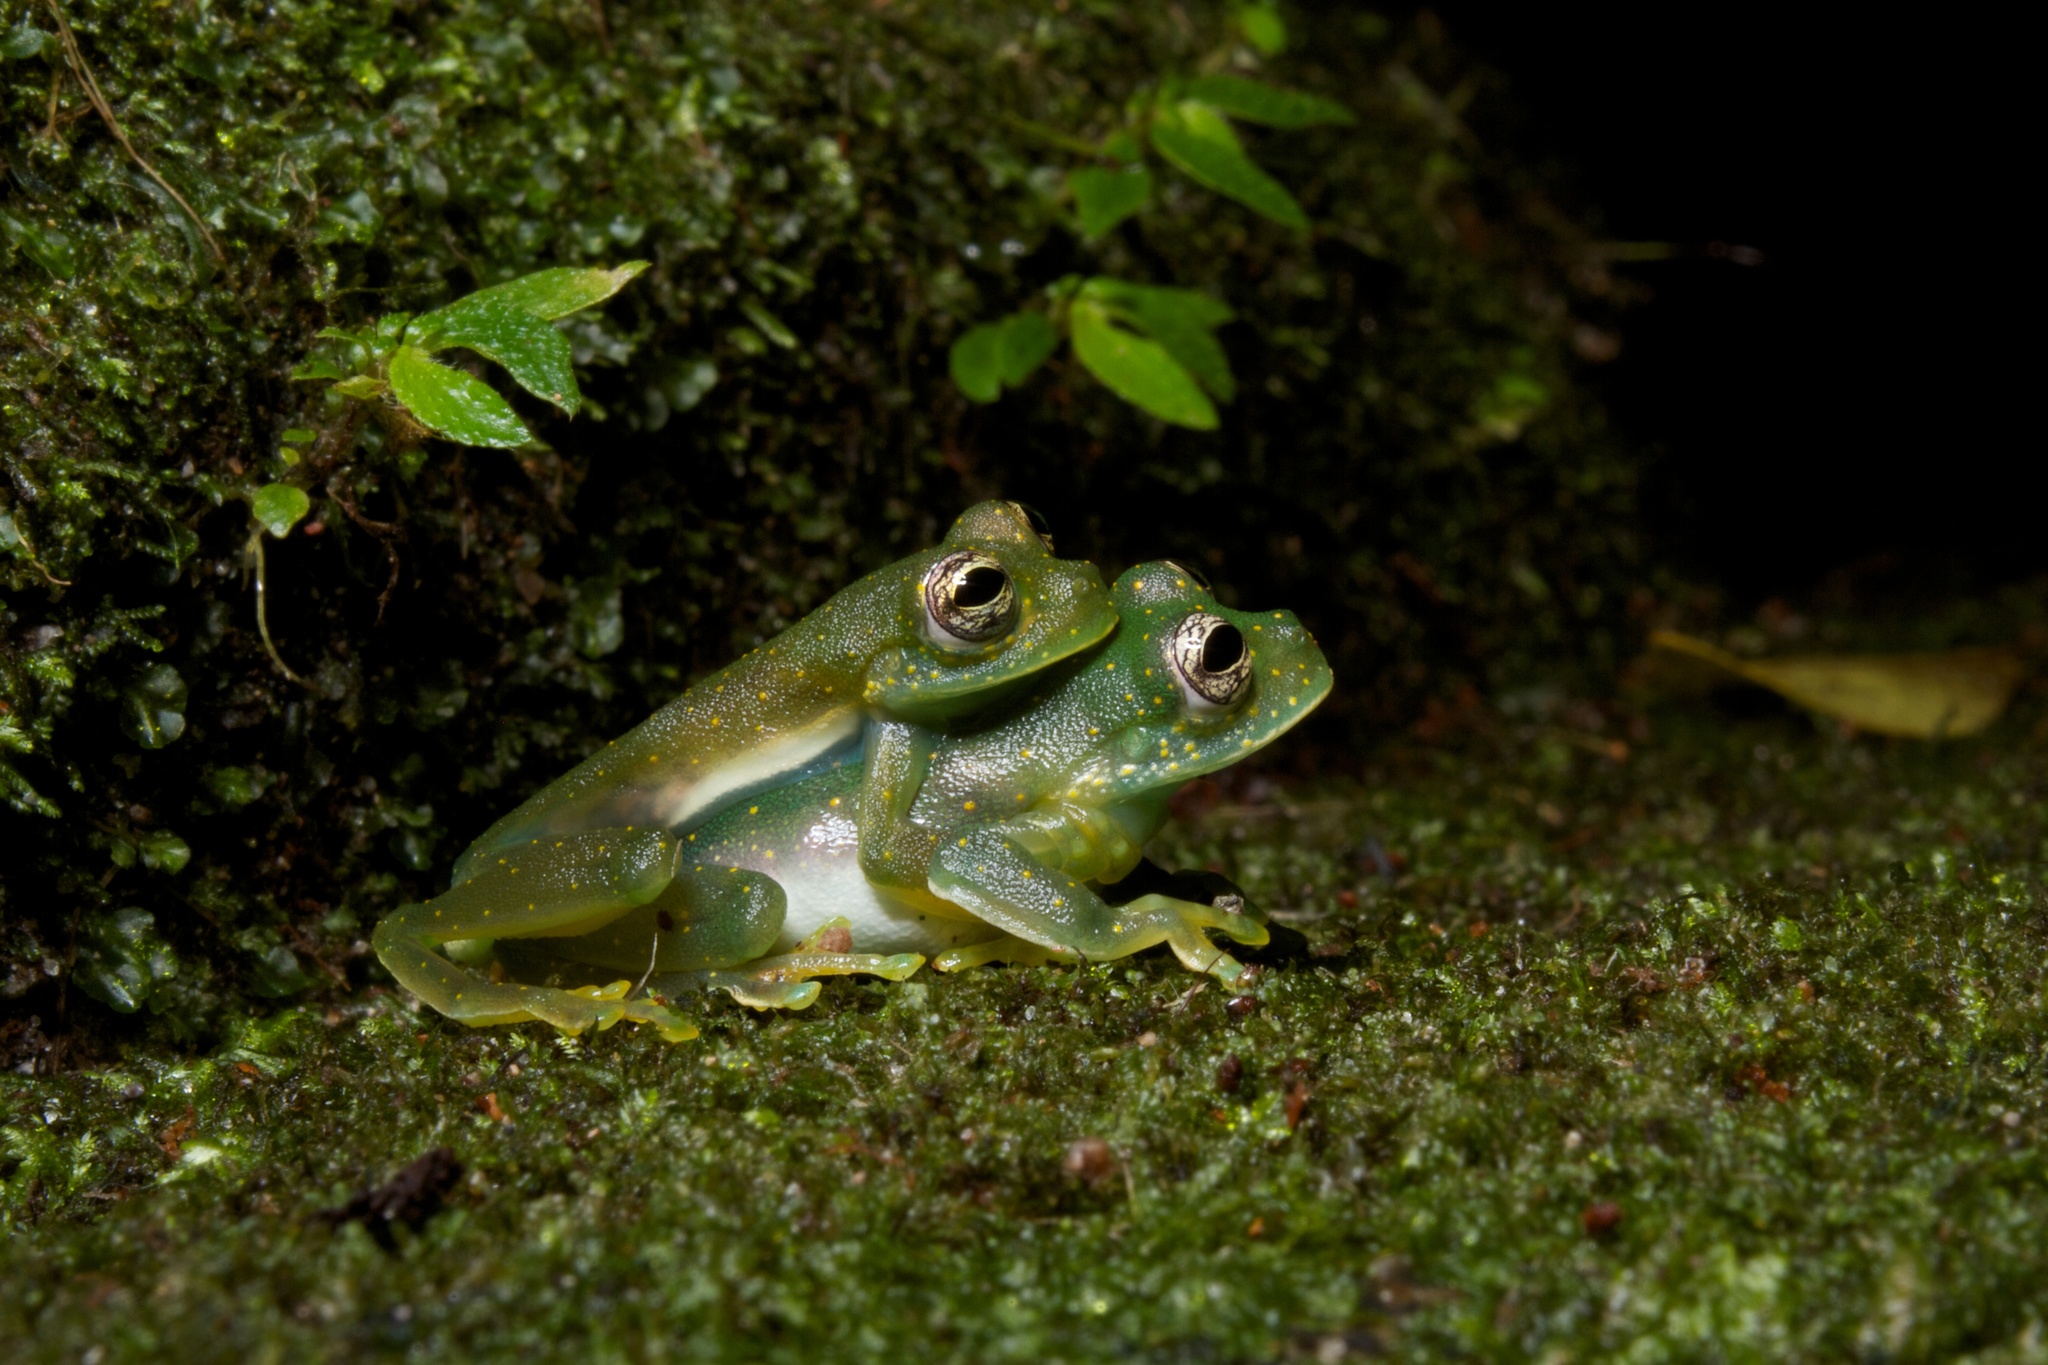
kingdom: Animalia
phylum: Chordata
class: Amphibia
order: Anura
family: Centrolenidae
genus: Sachatamia
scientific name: Sachatamia albomaculata
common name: Rana de cristal de cascada
